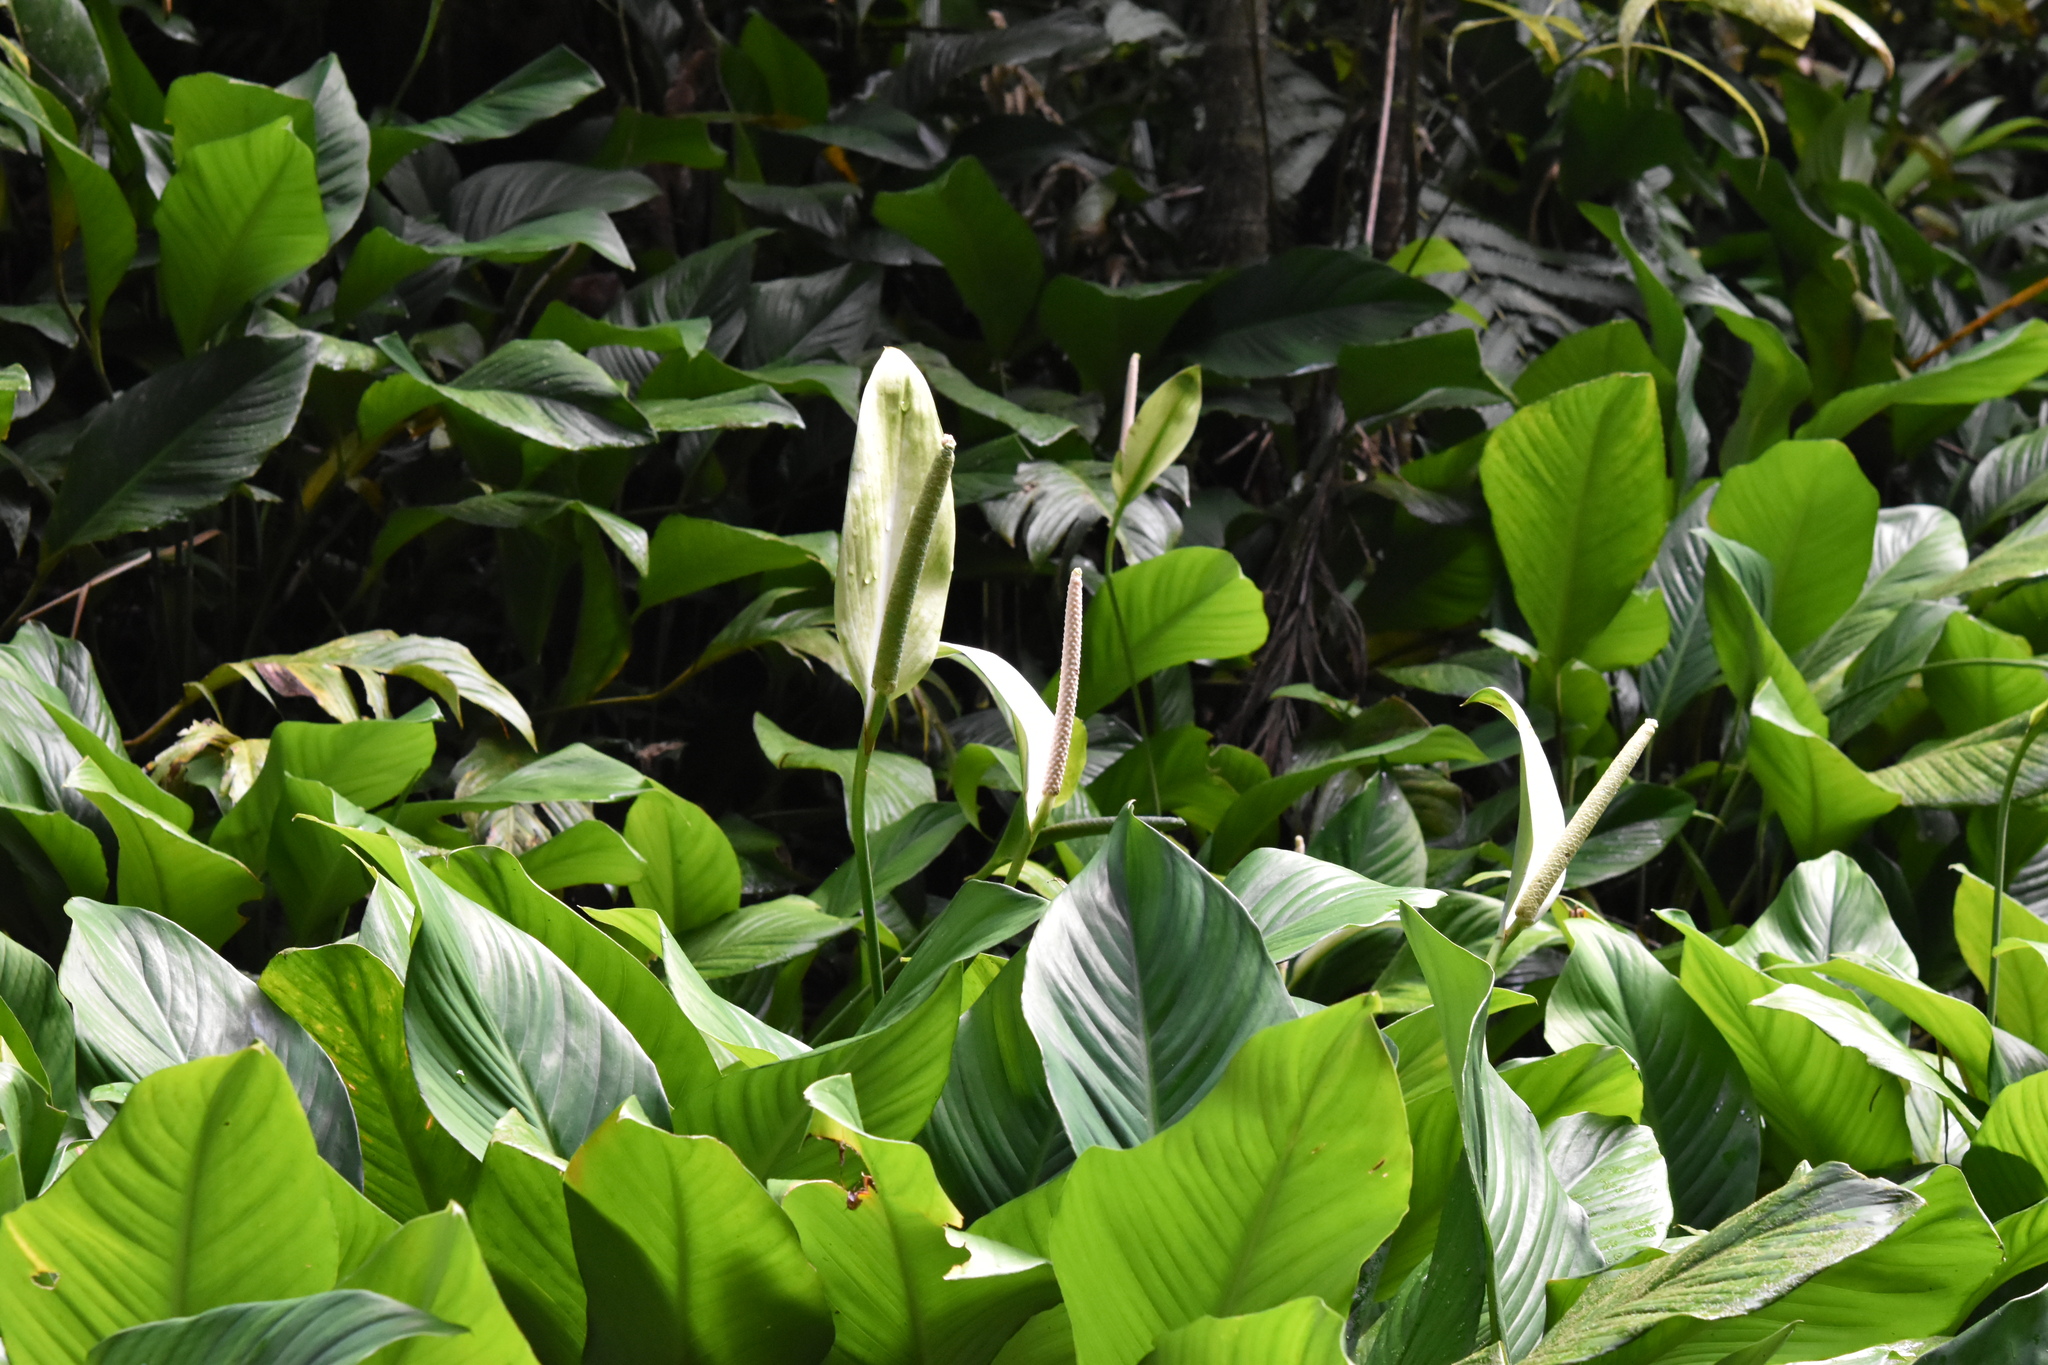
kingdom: Plantae
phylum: Tracheophyta
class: Liliopsida
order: Alismatales
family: Araceae
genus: Spathiphyllum
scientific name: Spathiphyllum wallisii
